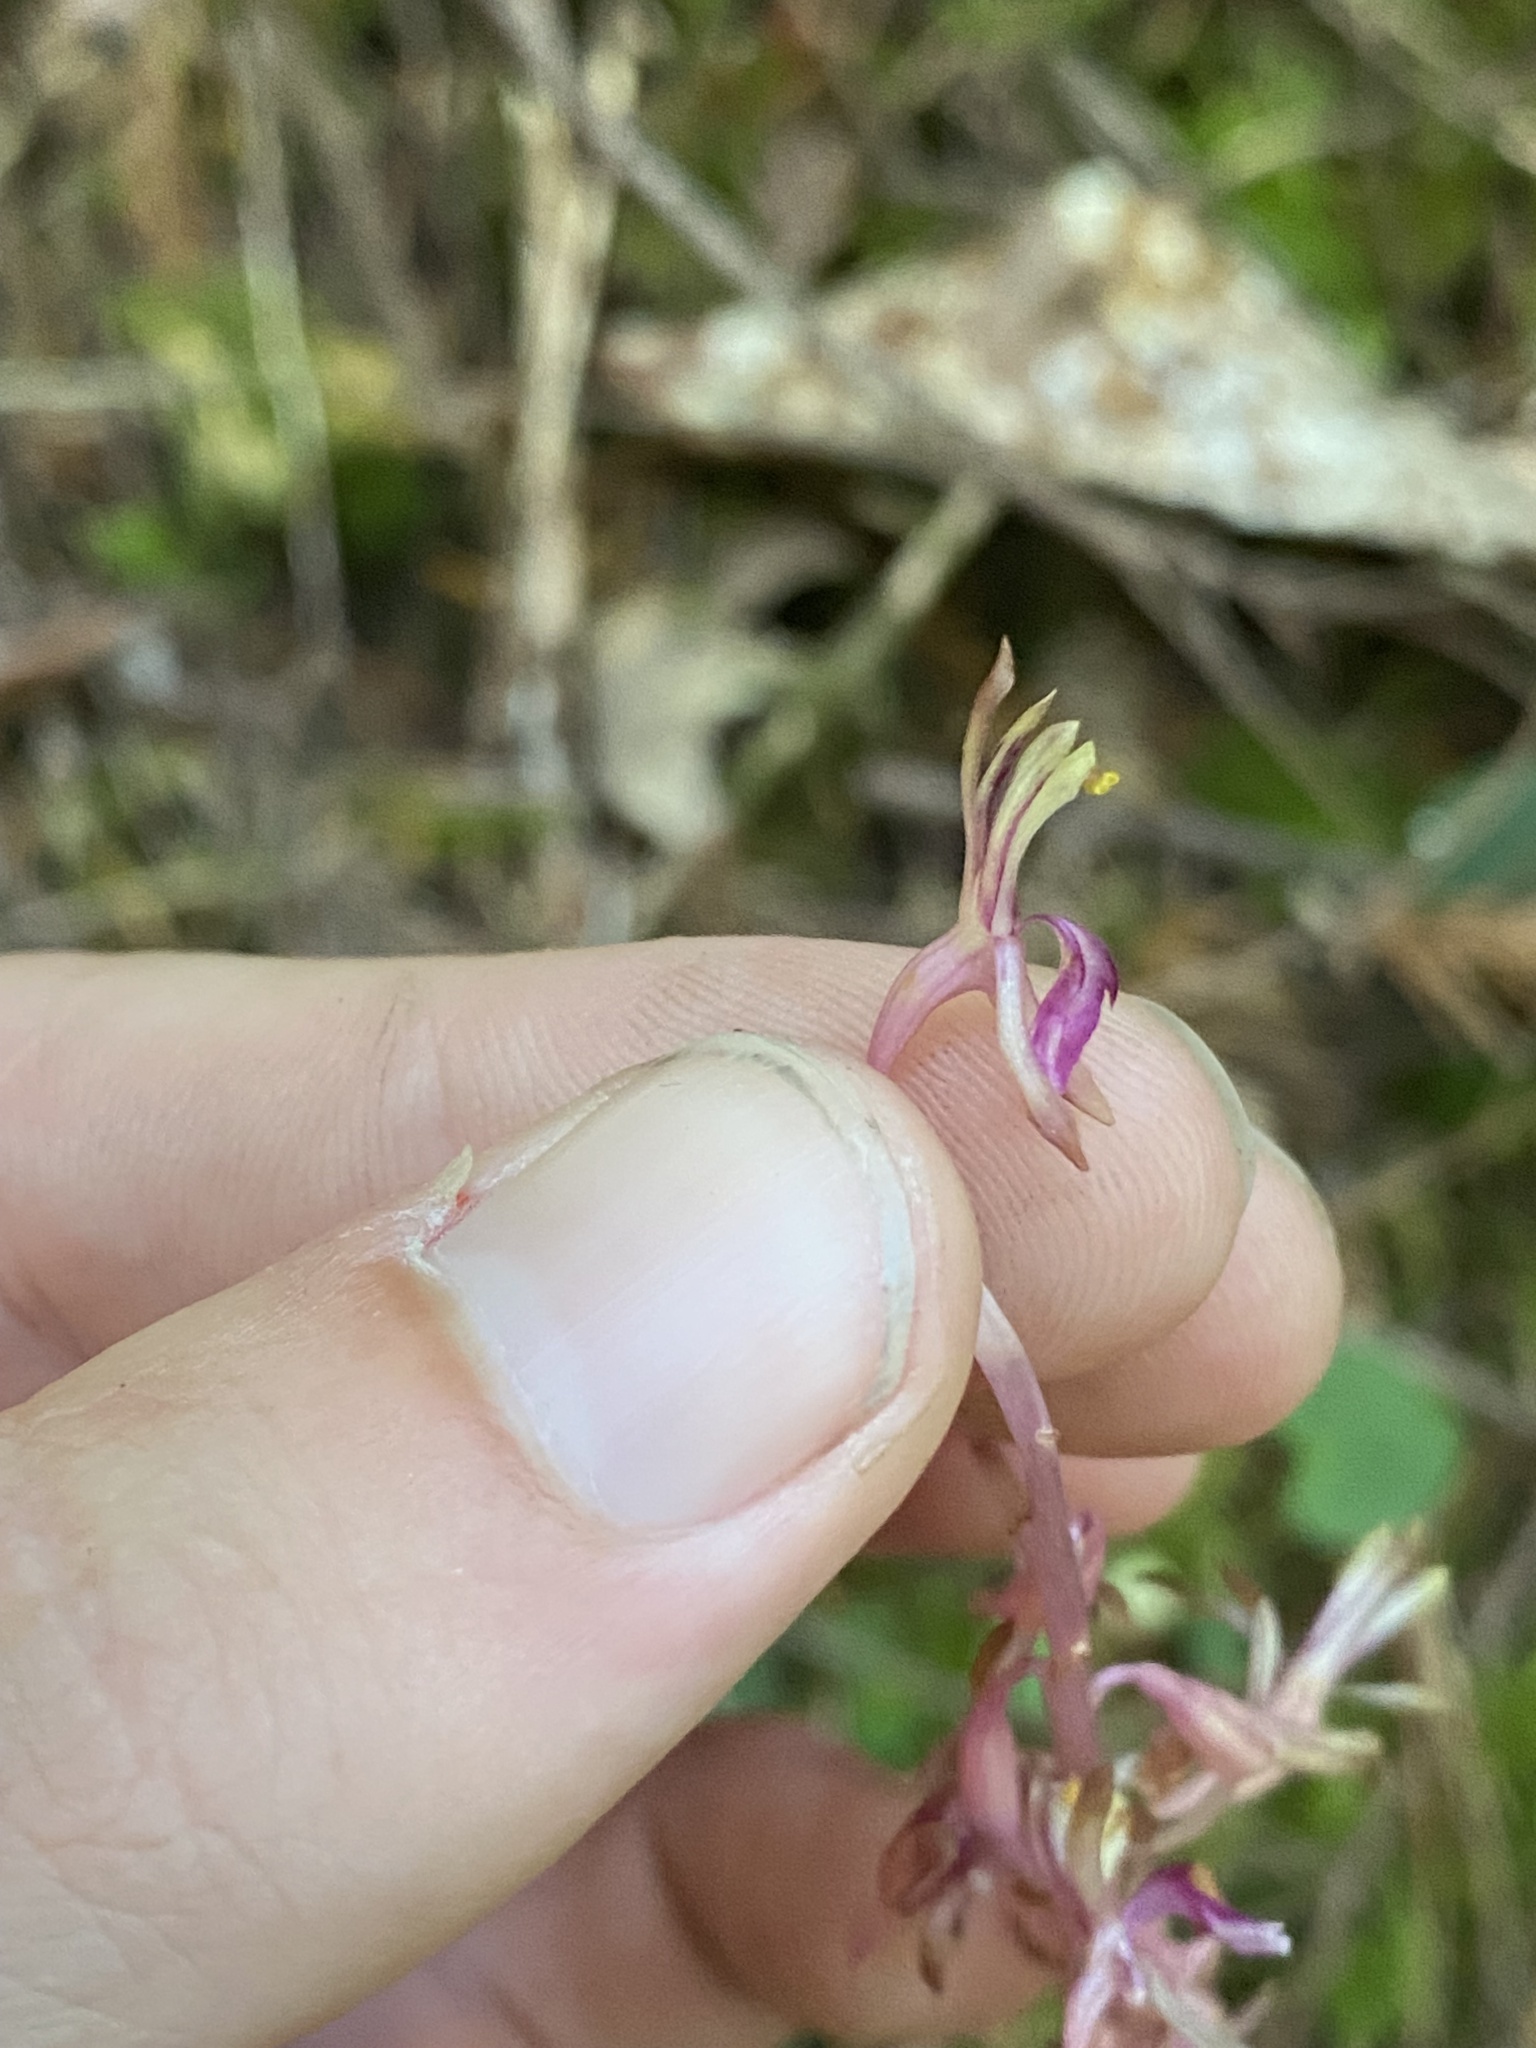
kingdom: Plantae
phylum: Tracheophyta
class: Liliopsida
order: Asparagales
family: Orchidaceae
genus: Corallorhiza
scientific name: Corallorhiza mertensiana
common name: Pacific coralroot
